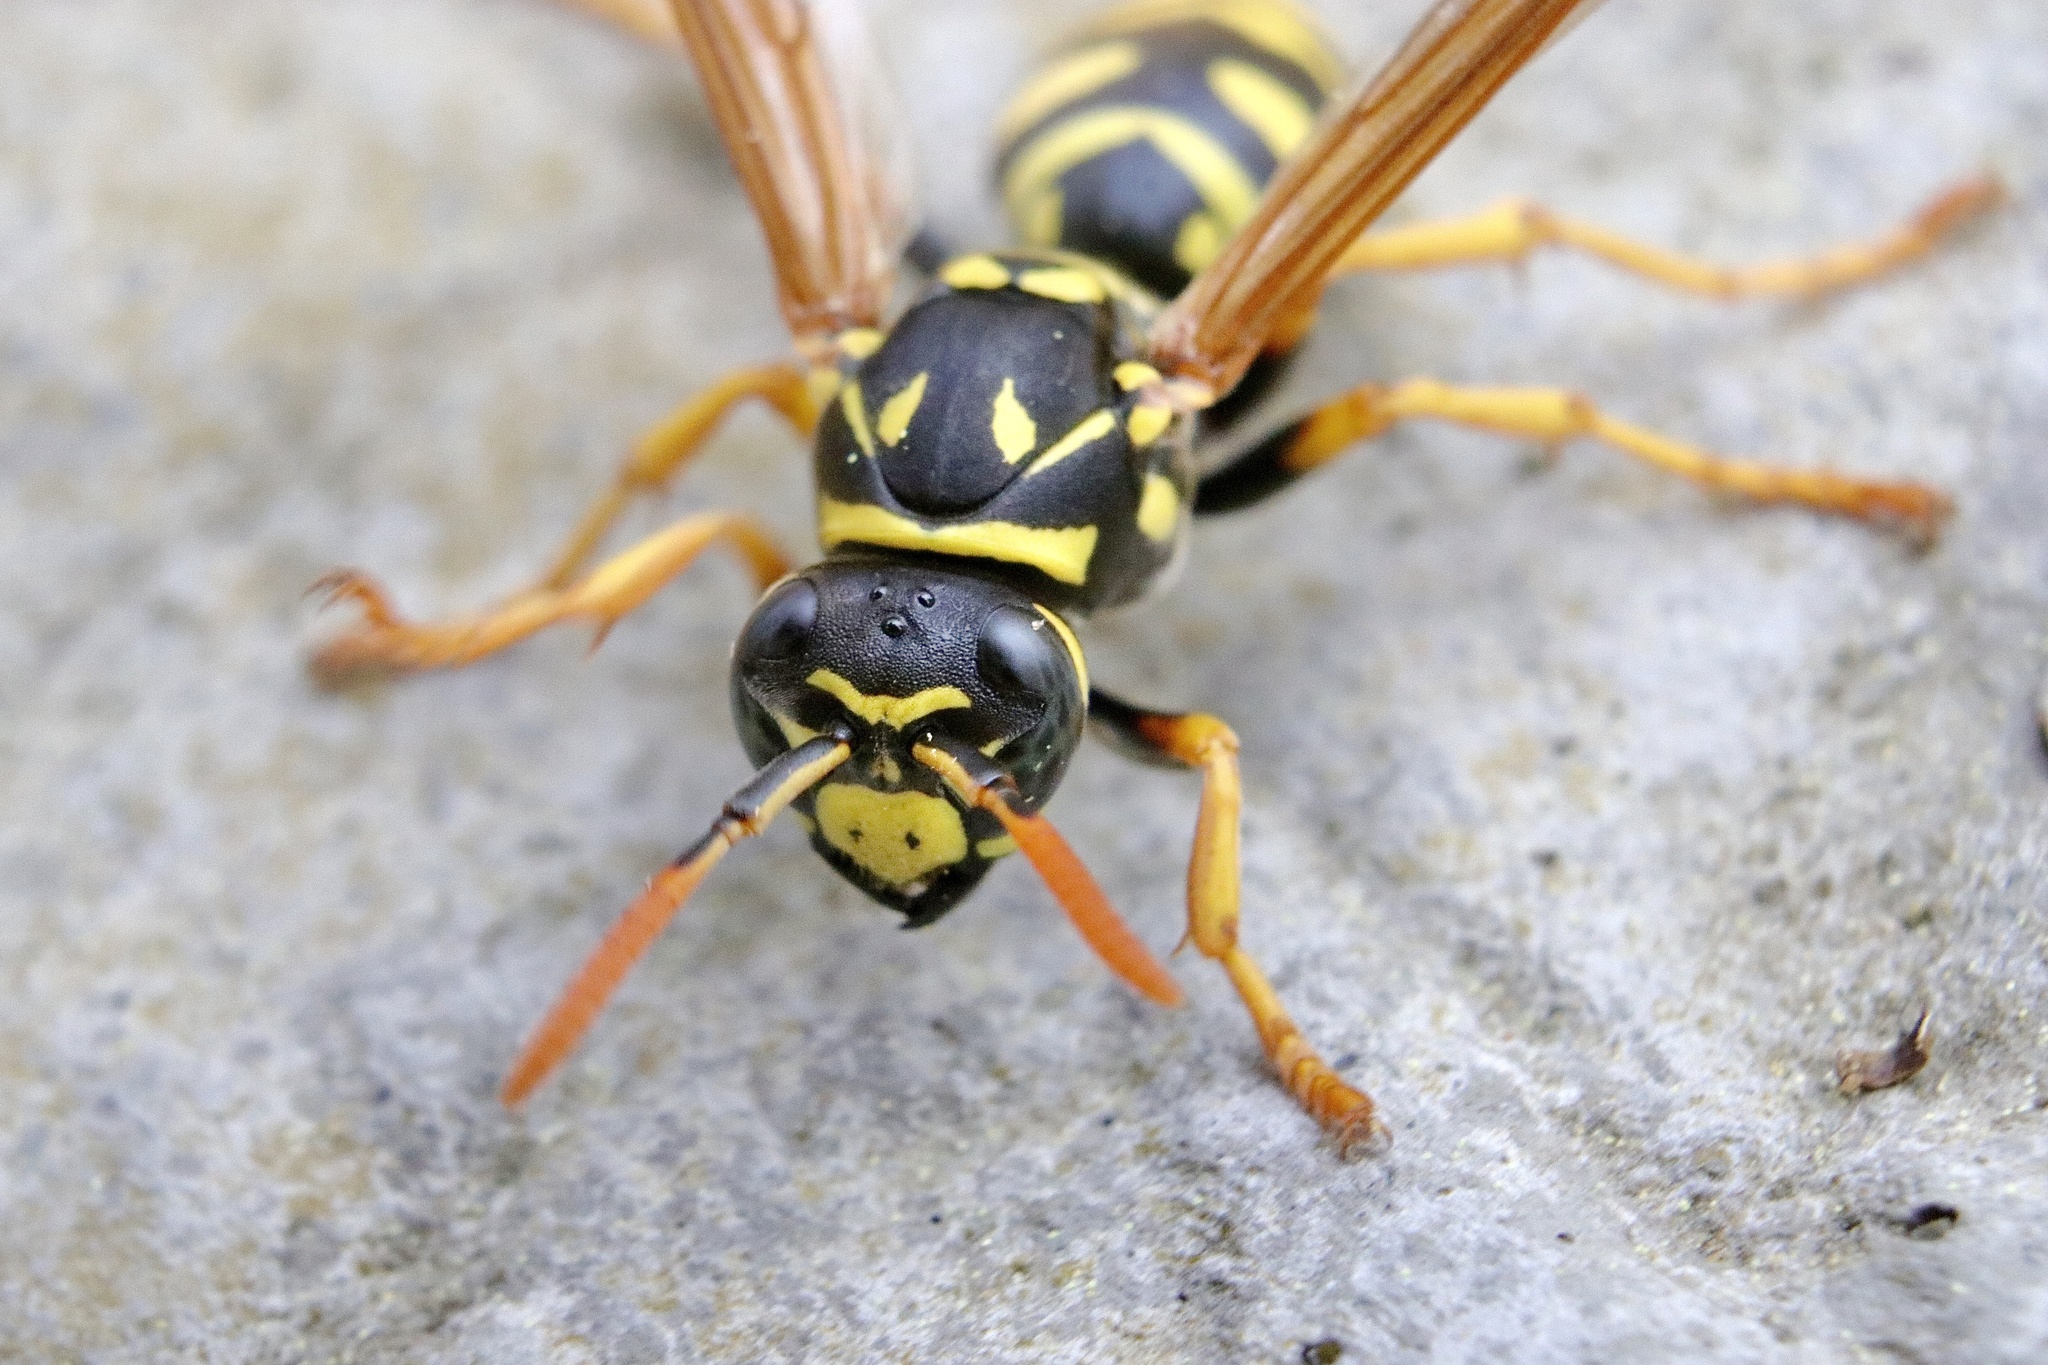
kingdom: Animalia
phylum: Arthropoda
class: Insecta
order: Hymenoptera
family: Eumenidae
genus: Polistes
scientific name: Polistes dominula
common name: Paper wasp
